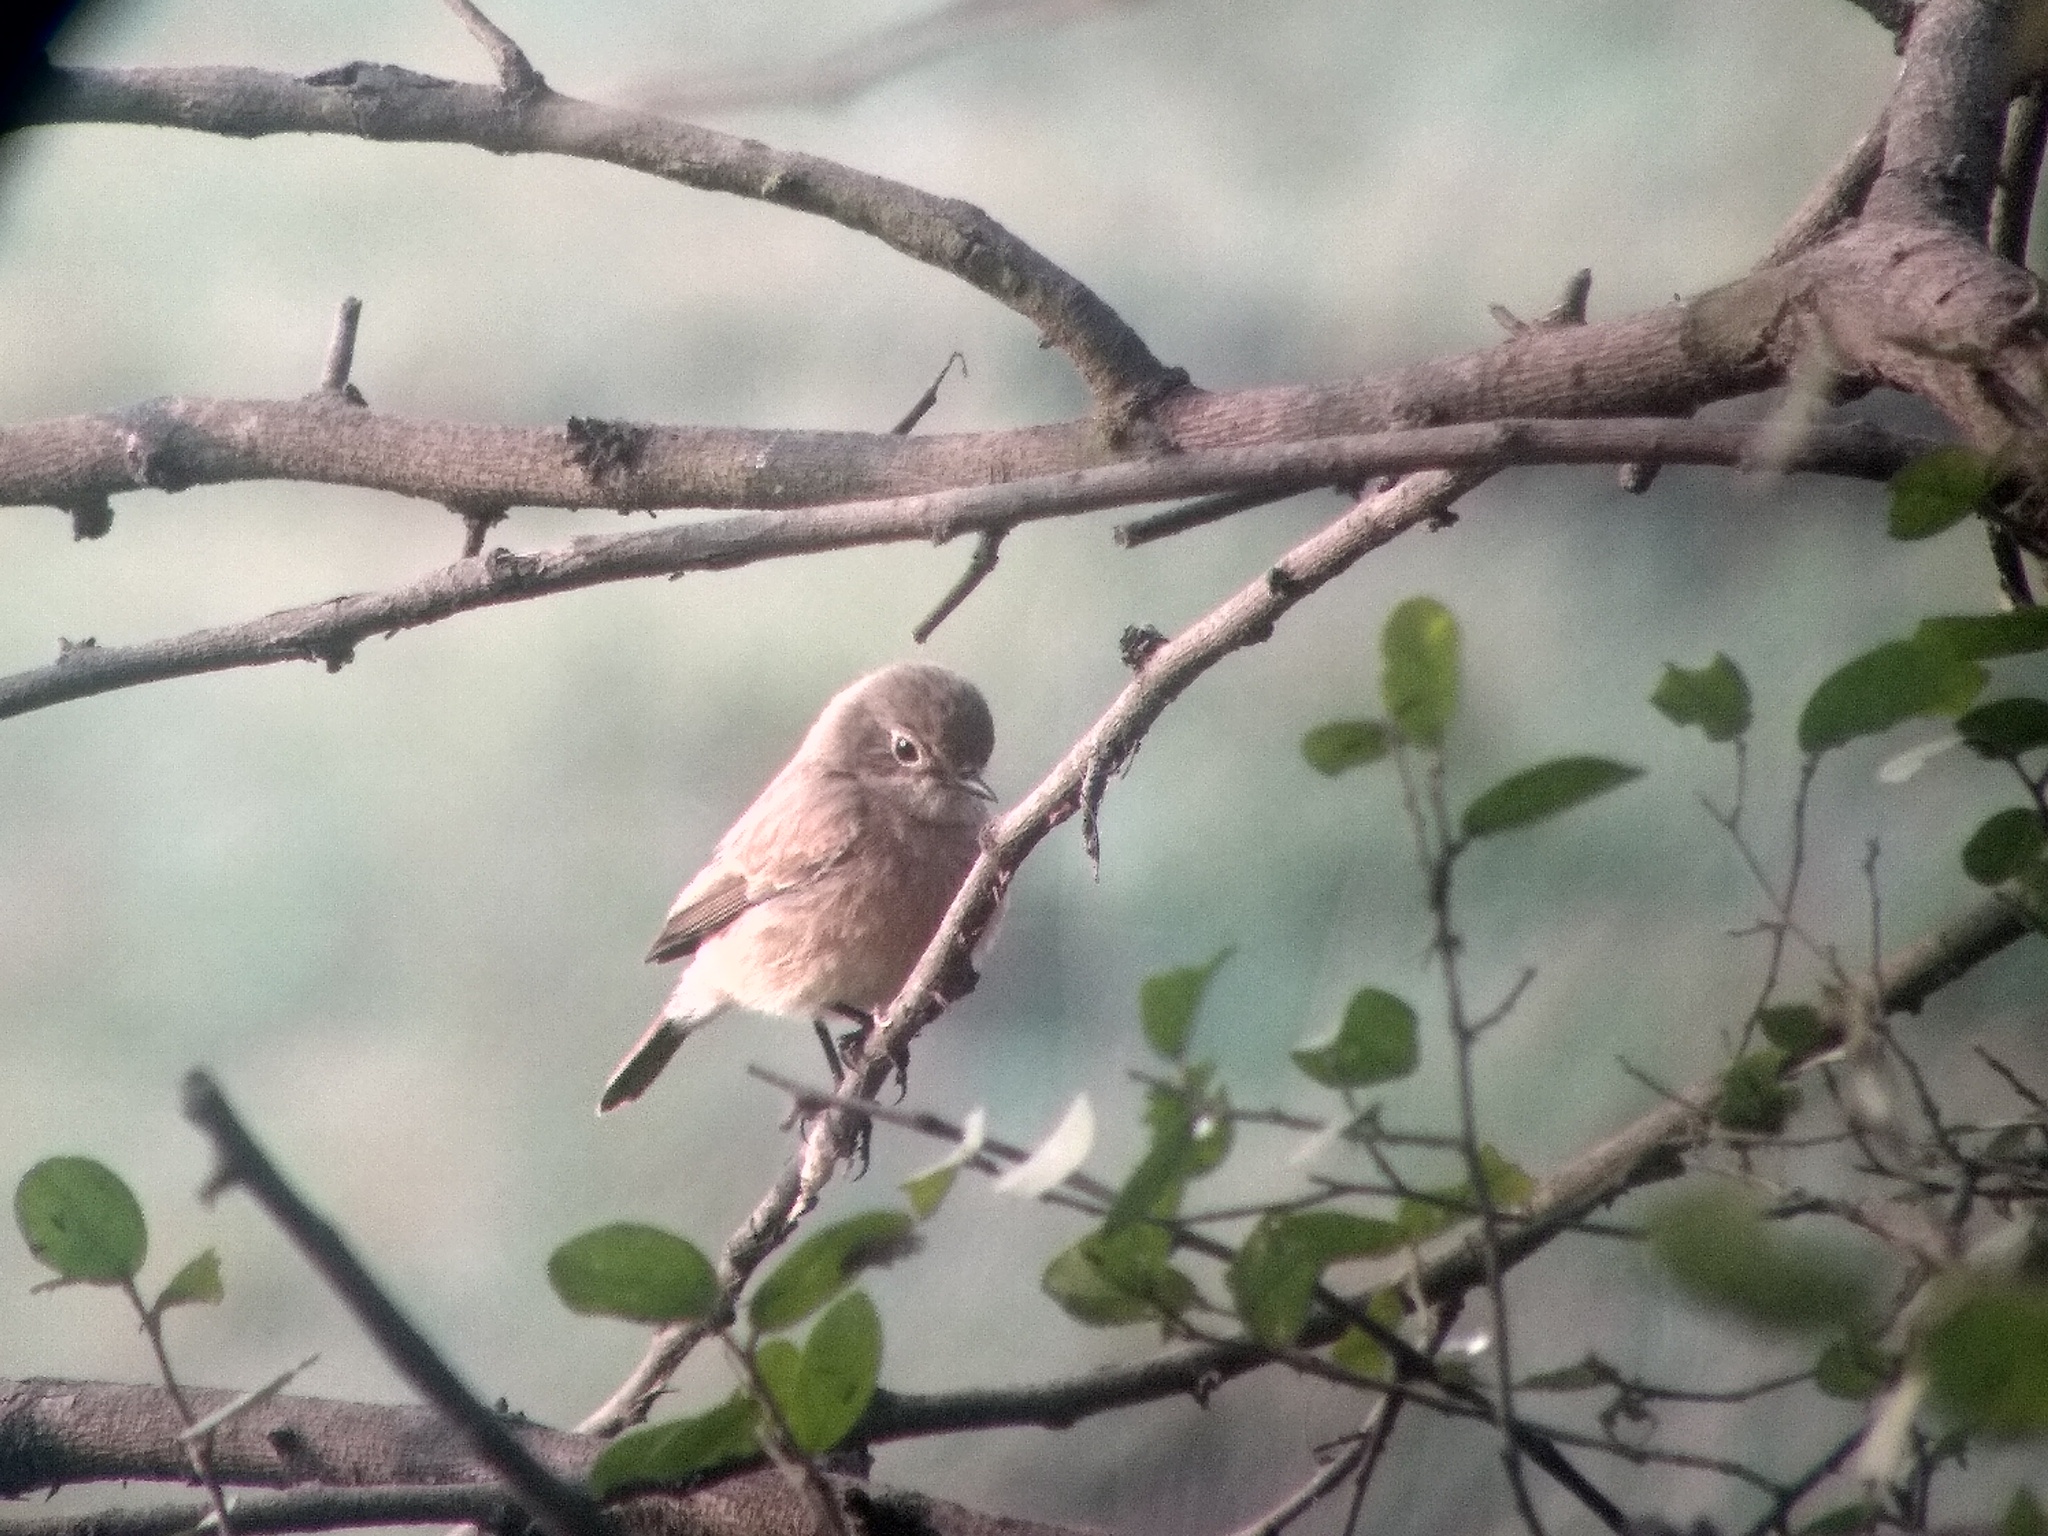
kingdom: Animalia
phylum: Chordata
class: Aves
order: Passeriformes
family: Muscicapidae
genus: Saxicola
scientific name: Saxicola caprata
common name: Pied bush chat
